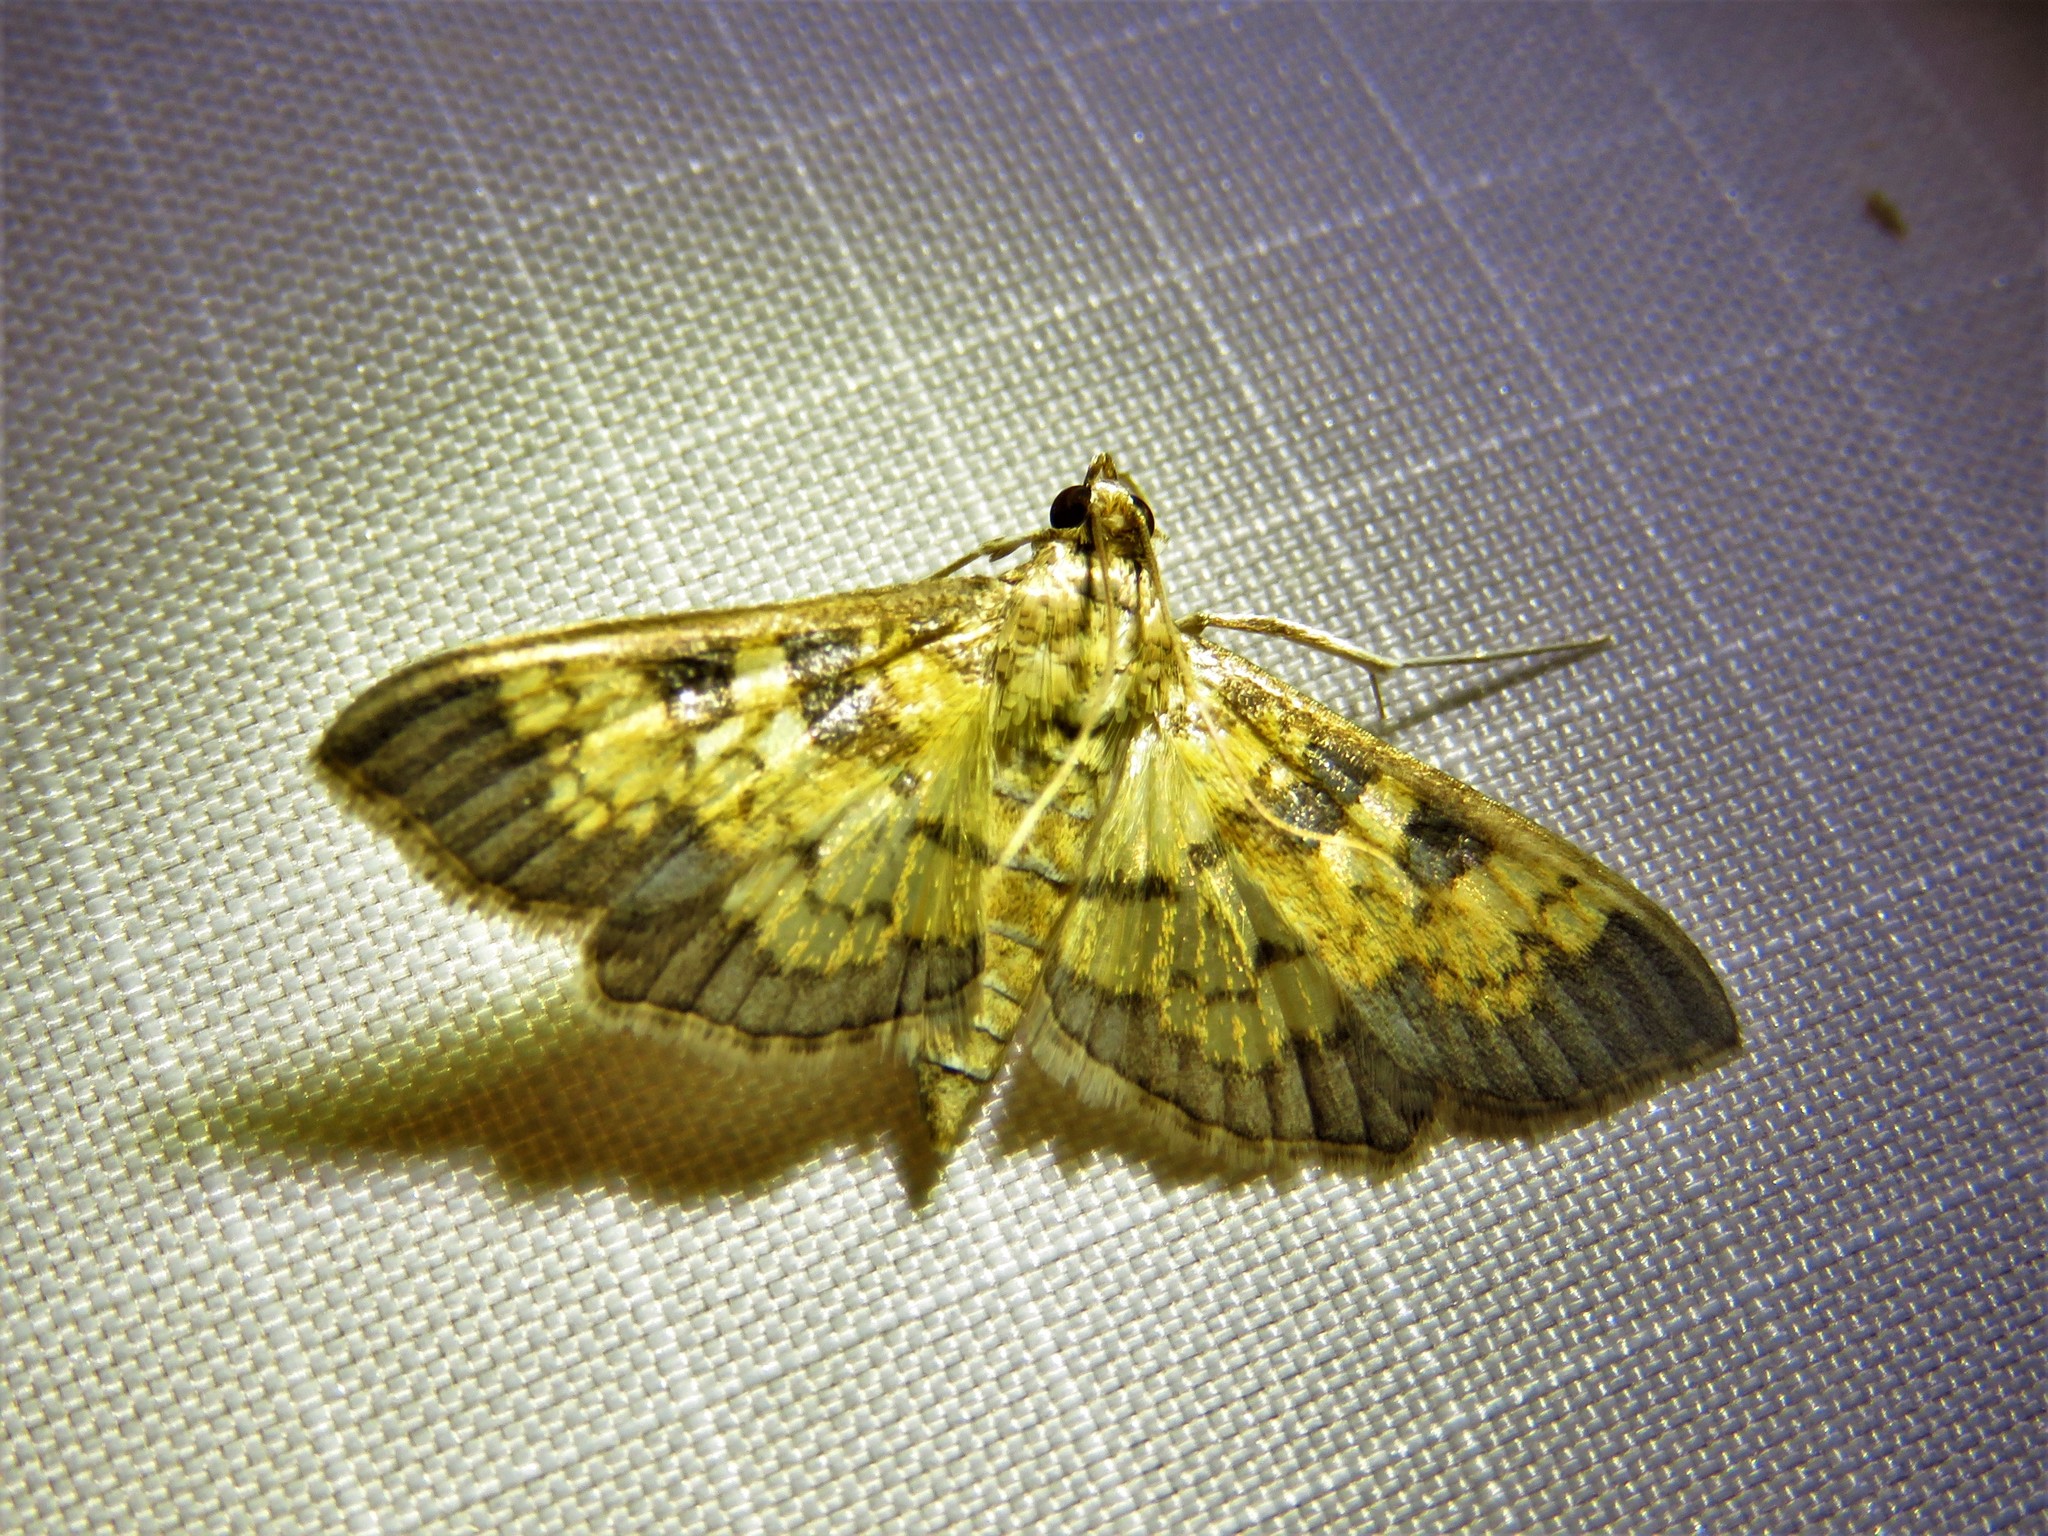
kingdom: Animalia
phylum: Arthropoda
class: Insecta
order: Lepidoptera
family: Crambidae
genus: Cryptographis
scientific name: Cryptographis elealis
